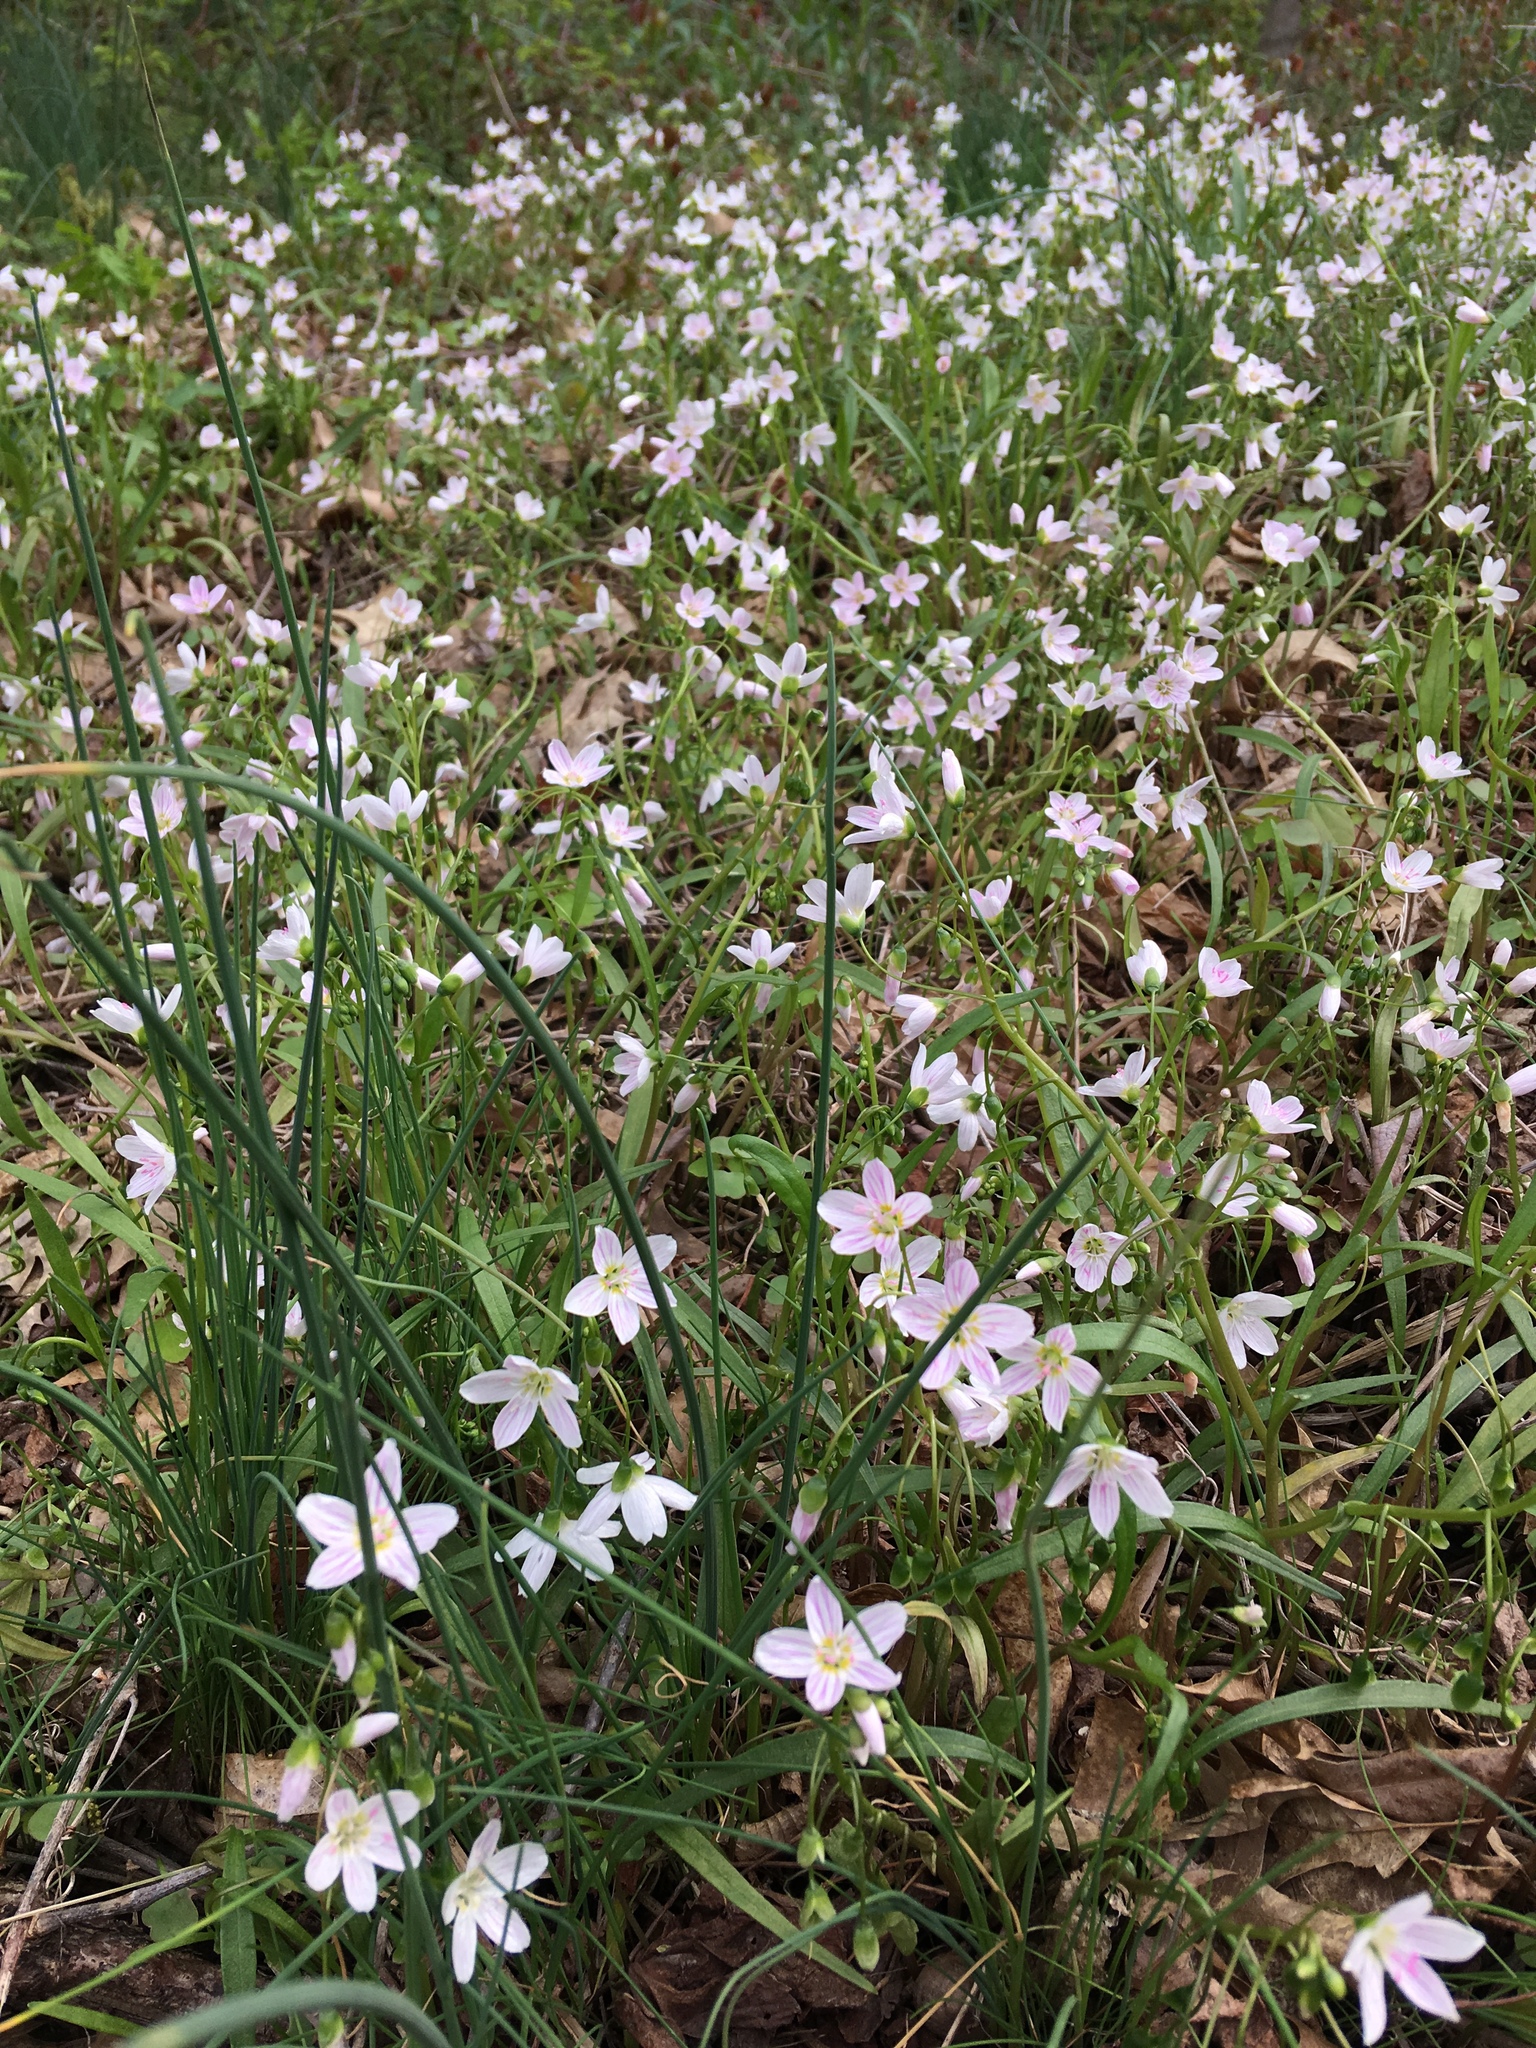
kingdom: Plantae
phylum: Tracheophyta
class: Magnoliopsida
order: Caryophyllales
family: Montiaceae
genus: Claytonia
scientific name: Claytonia virginica
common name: Virginia springbeauty
